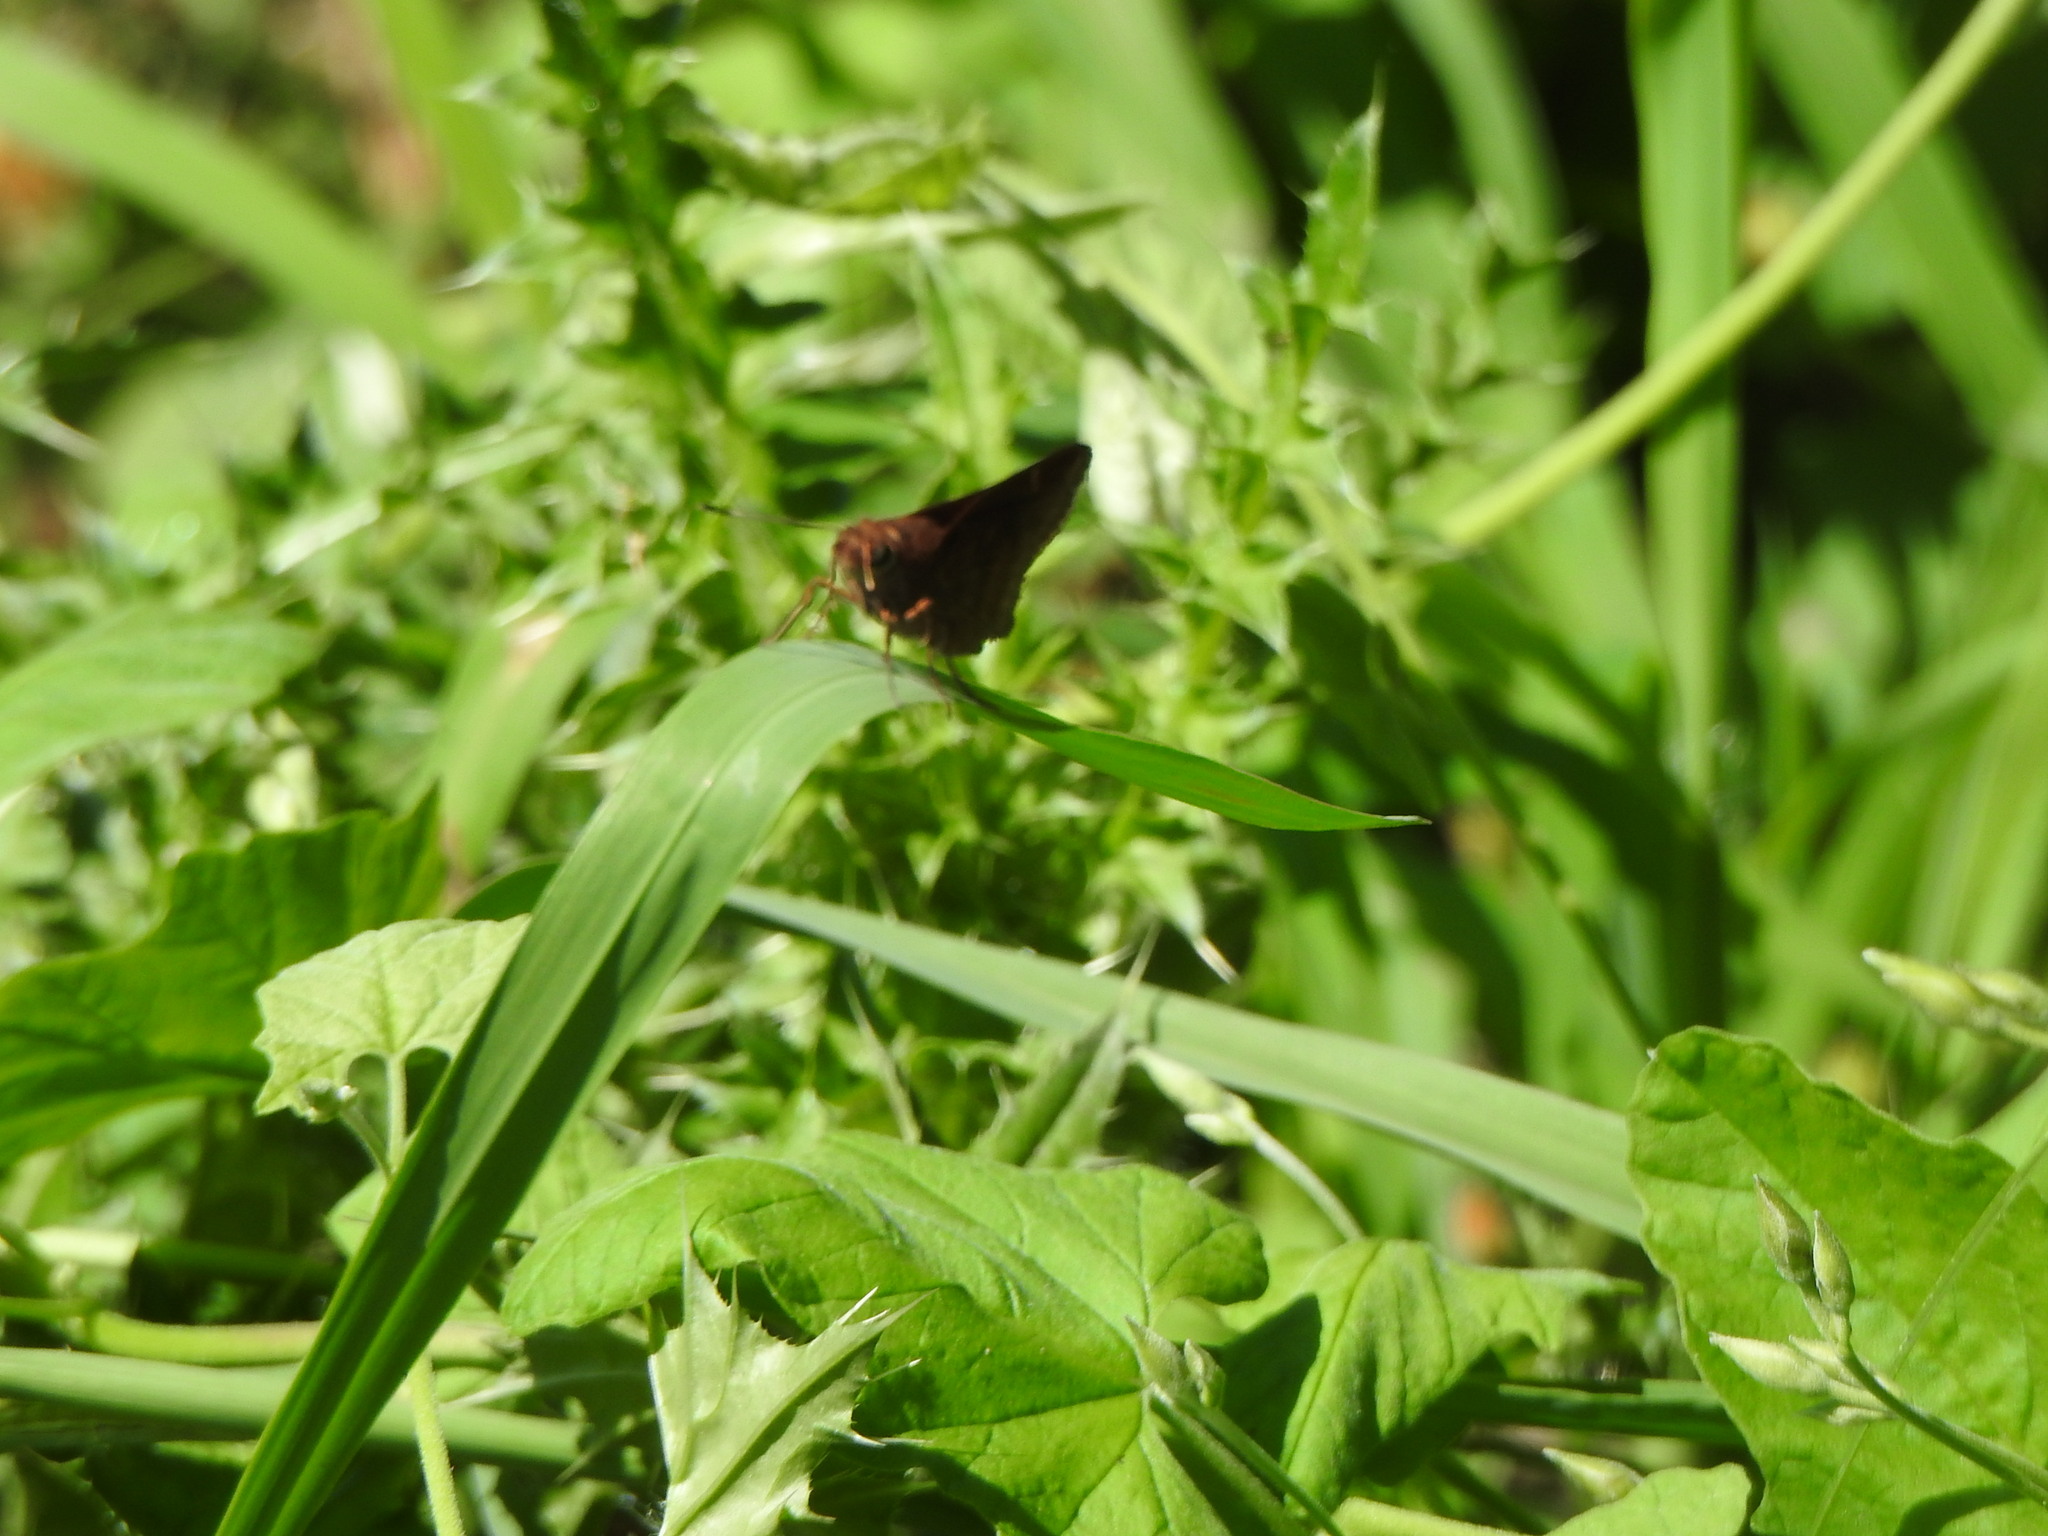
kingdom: Animalia
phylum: Arthropoda
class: Insecta
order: Lepidoptera
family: Hesperiidae
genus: Quinta
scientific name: Quinta cannae
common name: Canna skipper
